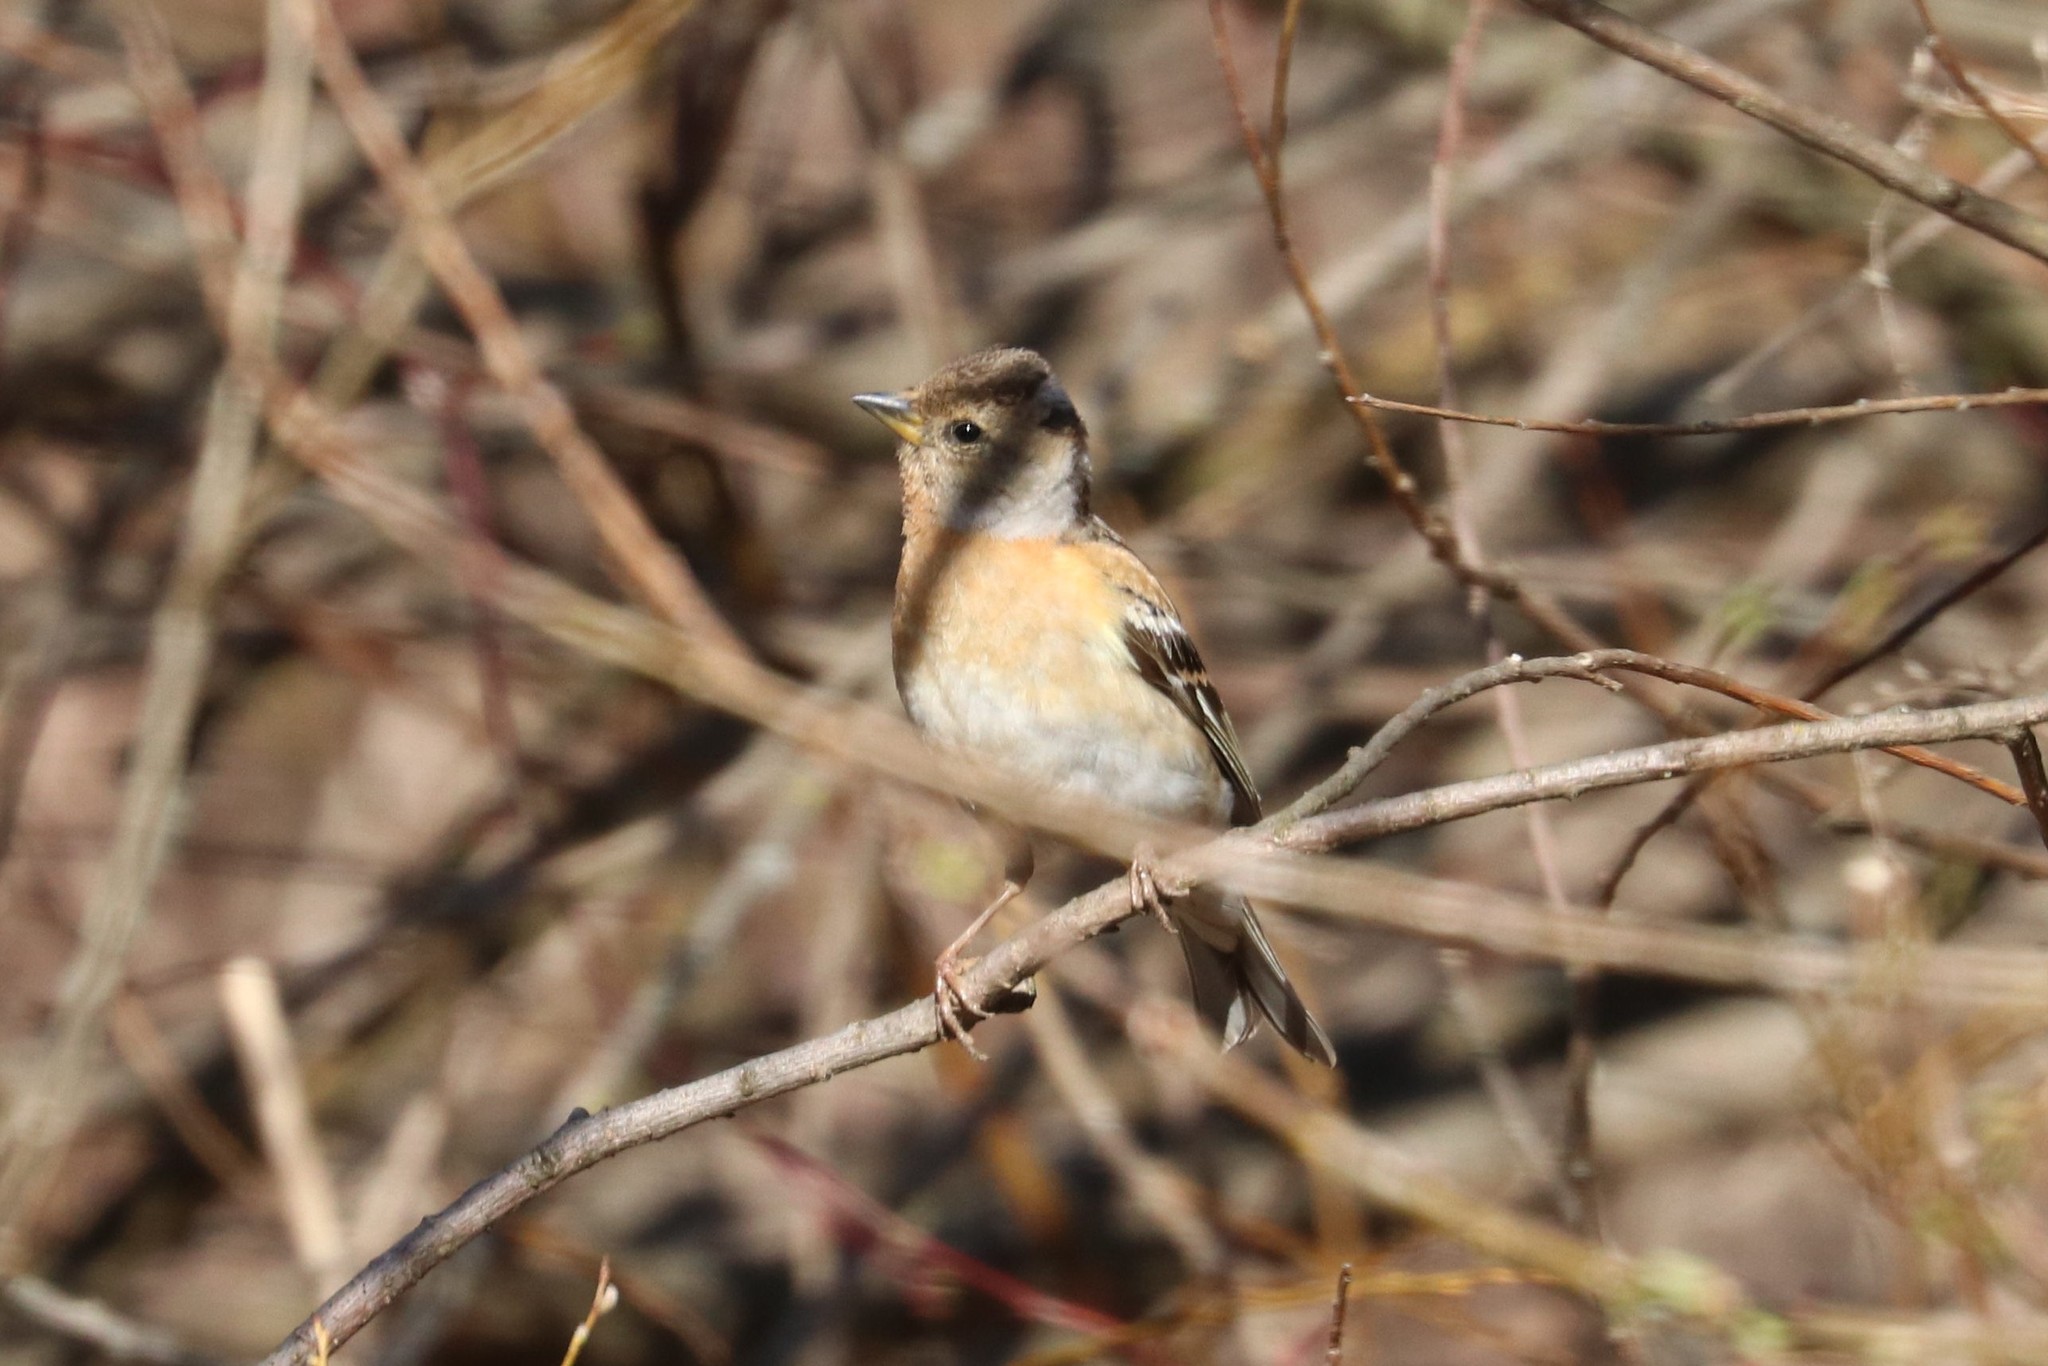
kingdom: Animalia
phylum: Chordata
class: Aves
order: Passeriformes
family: Fringillidae
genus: Fringilla
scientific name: Fringilla montifringilla
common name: Brambling
